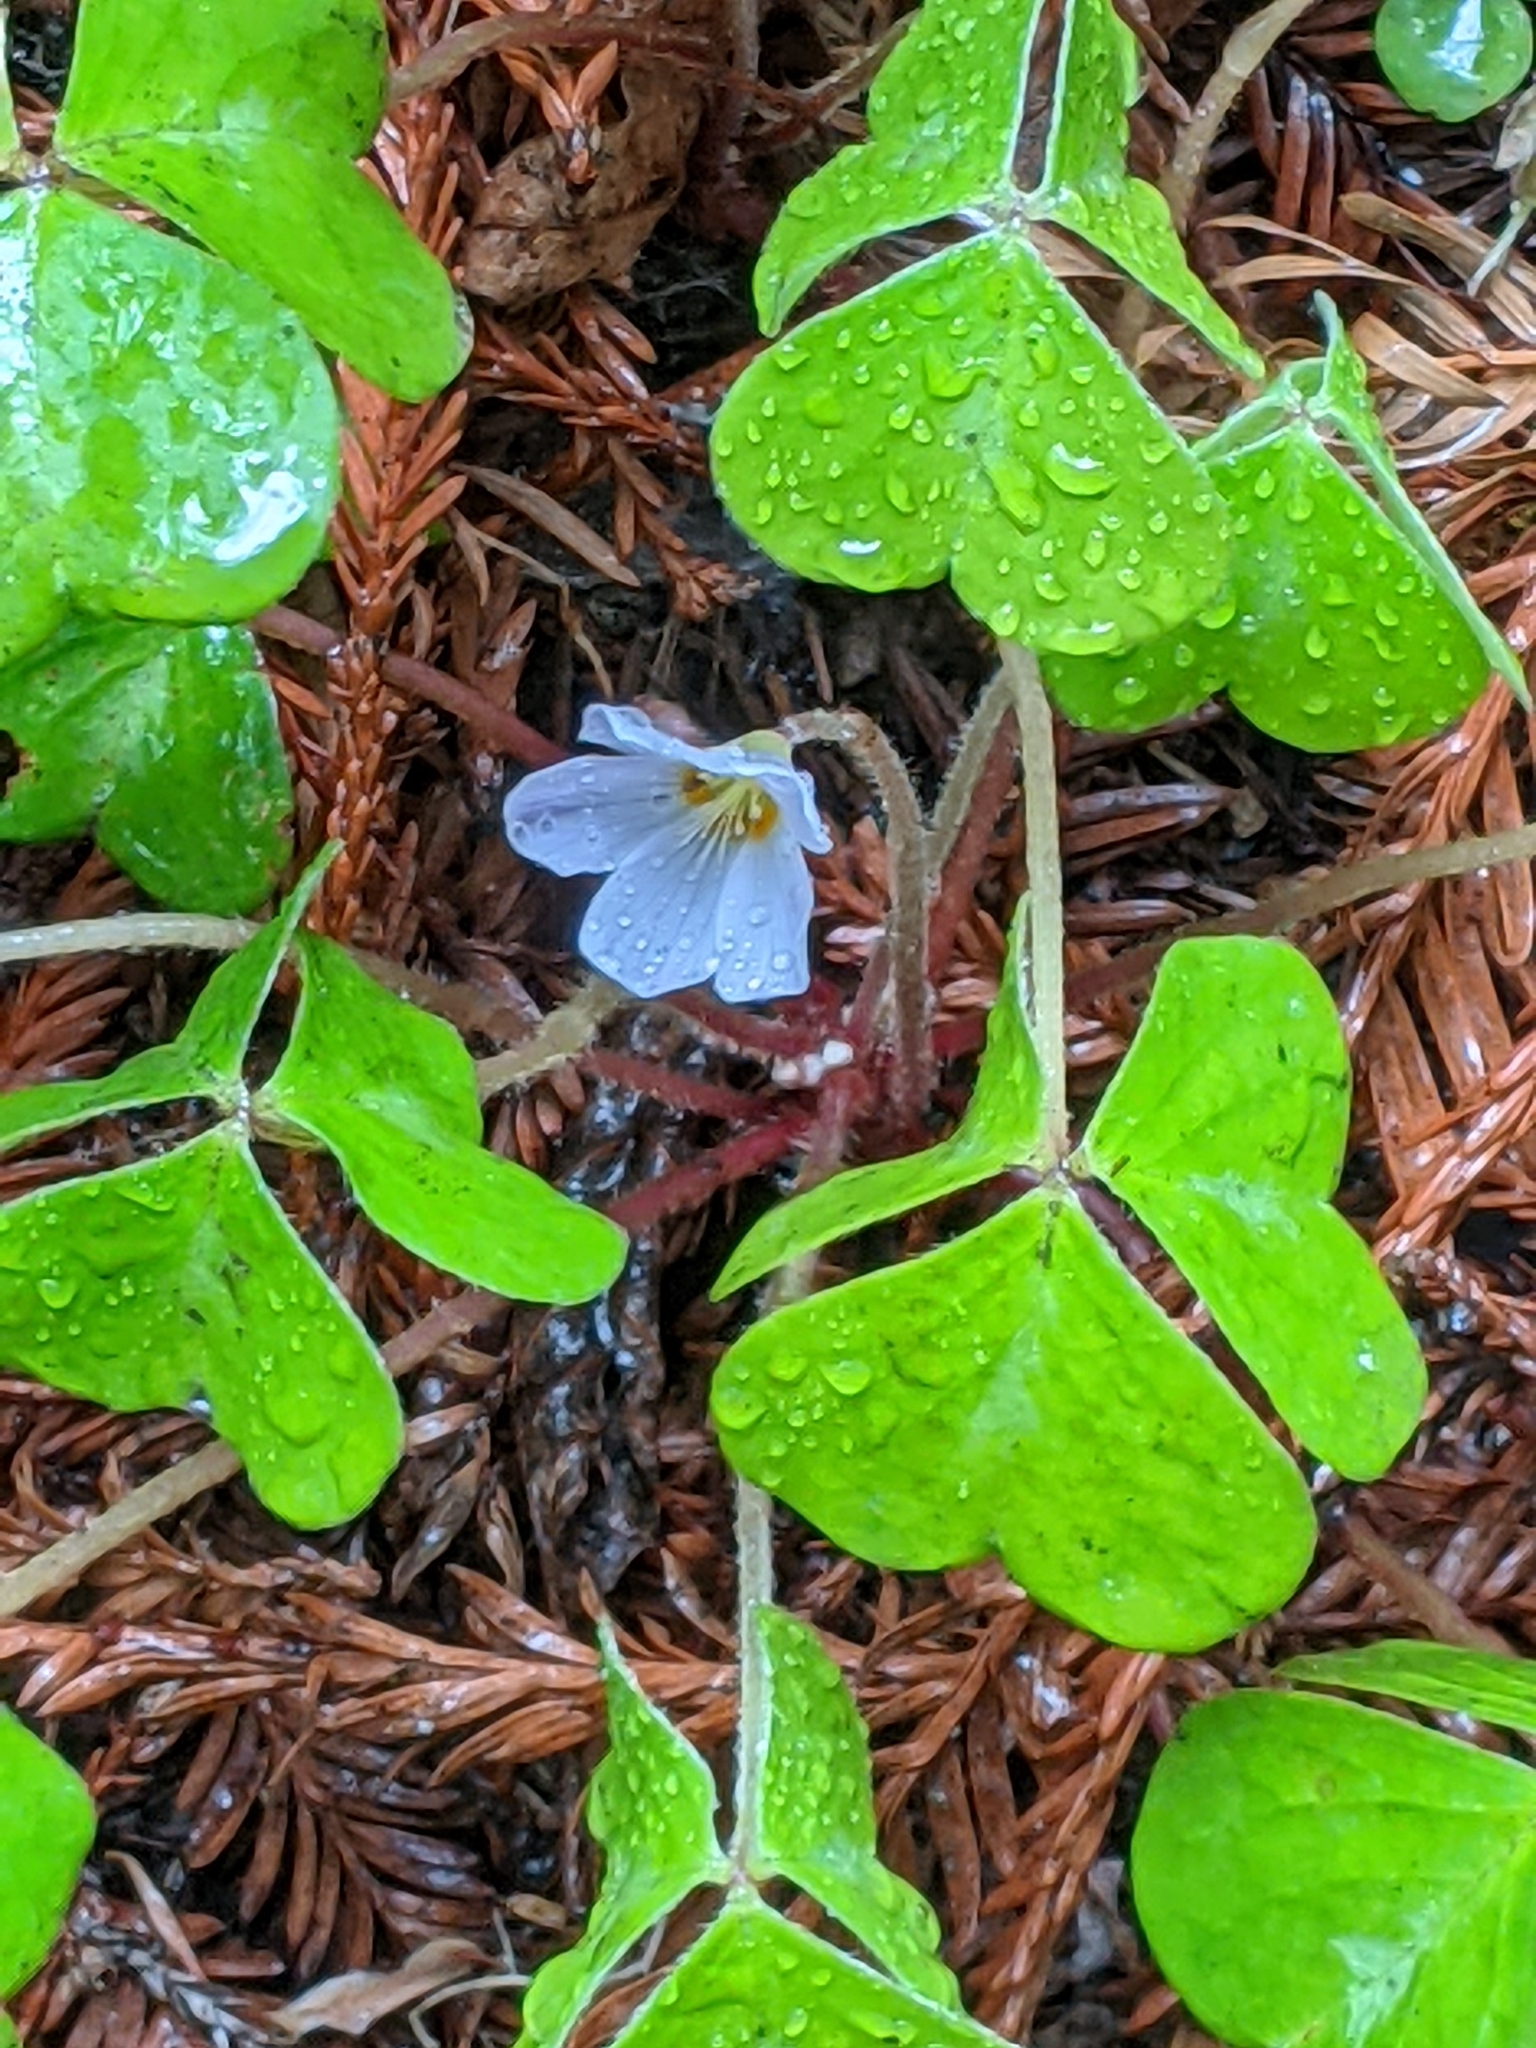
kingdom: Plantae
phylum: Tracheophyta
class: Magnoliopsida
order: Oxalidales
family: Oxalidaceae
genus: Oxalis
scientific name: Oxalis oregana
